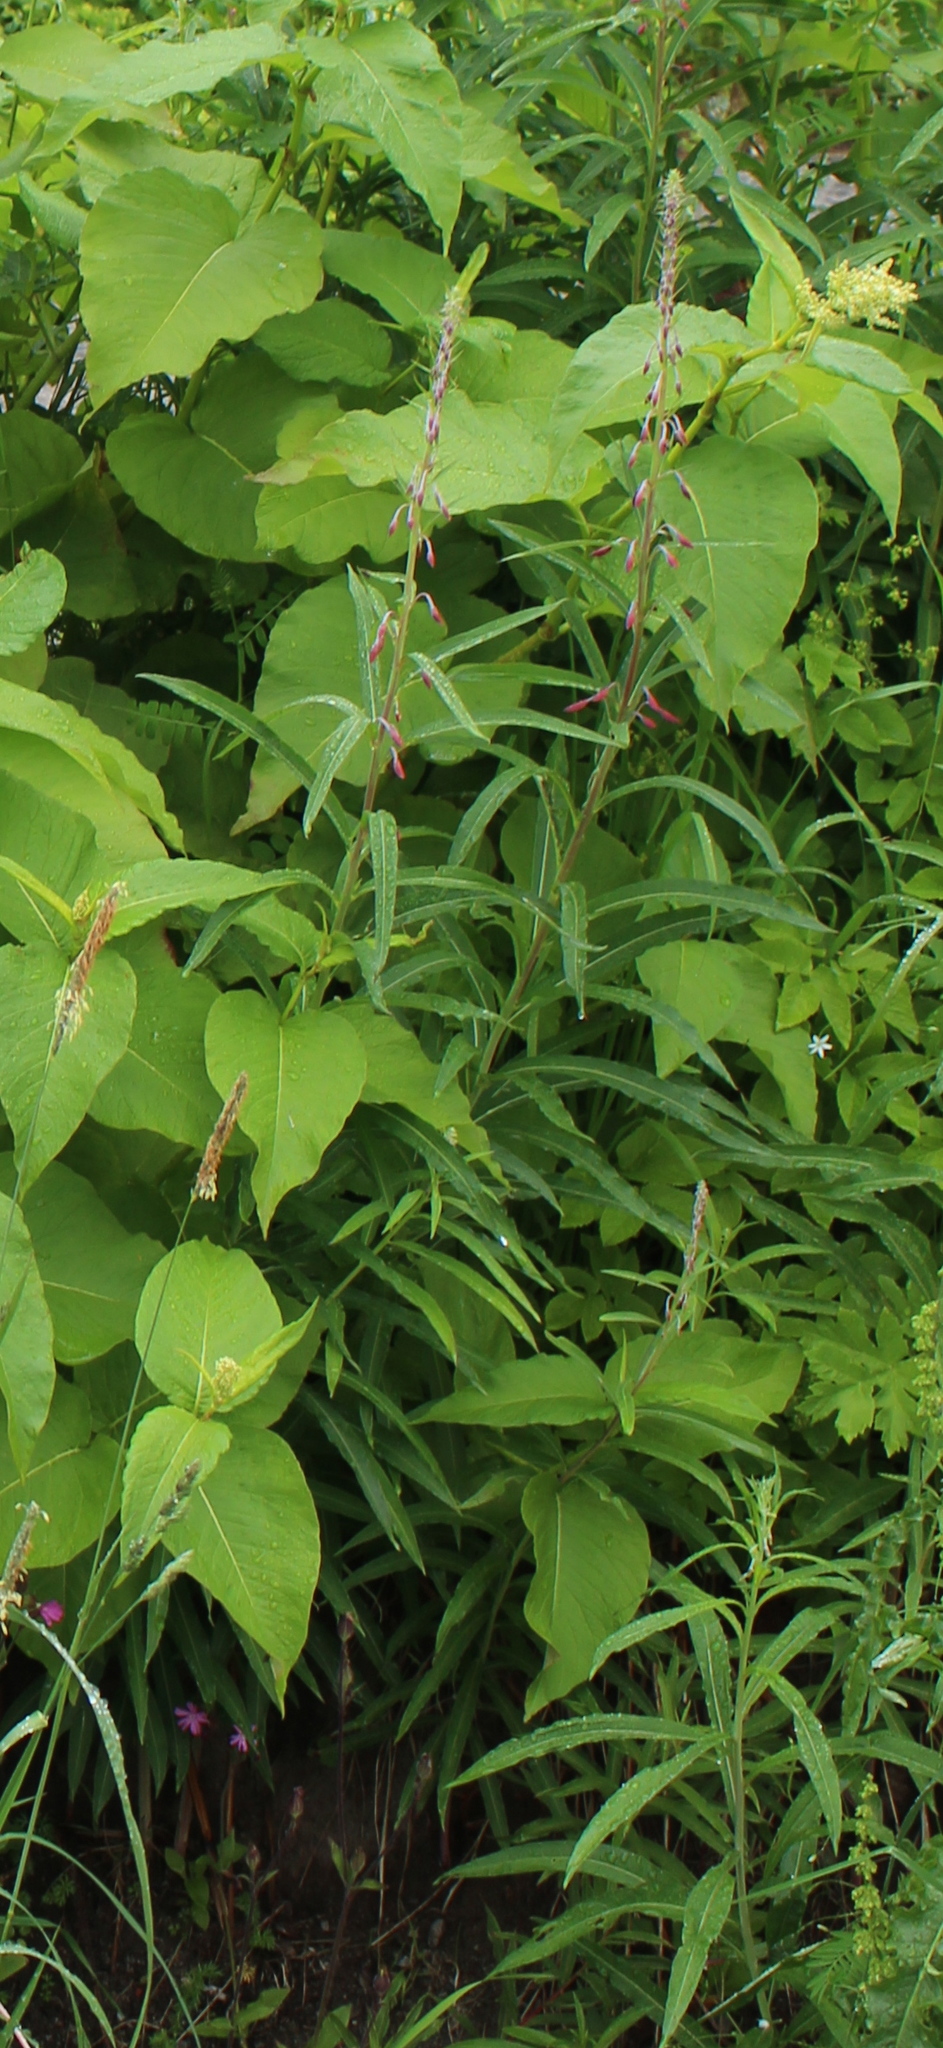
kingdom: Plantae
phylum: Tracheophyta
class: Magnoliopsida
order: Myrtales
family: Onagraceae
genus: Chamaenerion
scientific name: Chamaenerion angustifolium
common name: Fireweed
